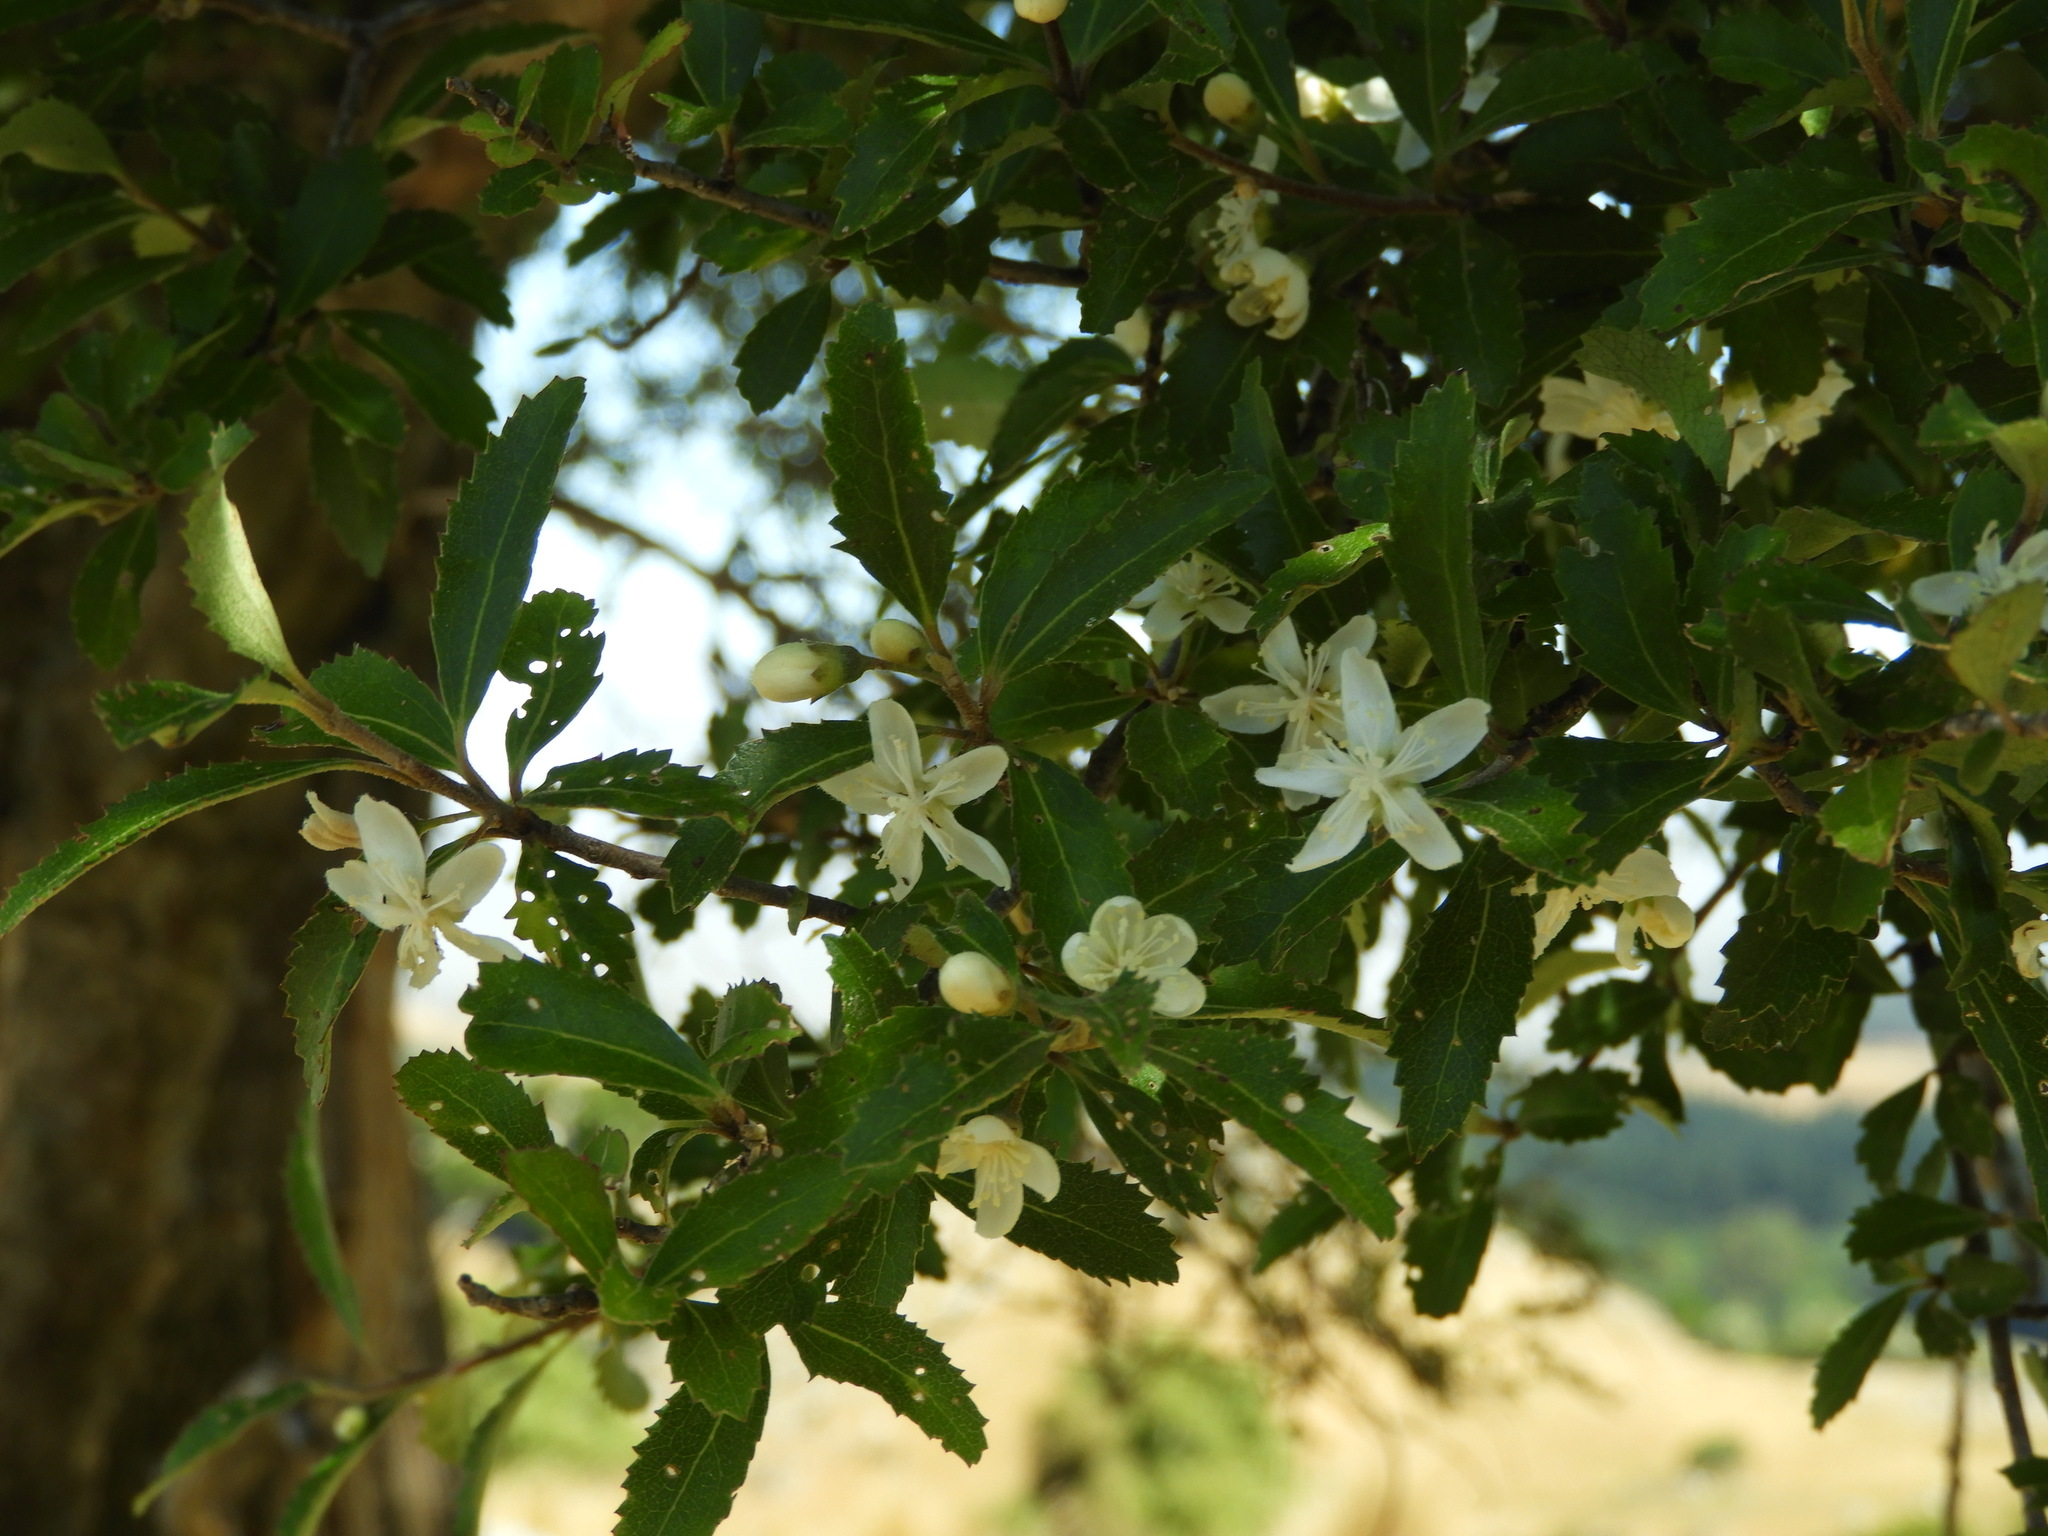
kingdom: Plantae
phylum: Tracheophyta
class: Magnoliopsida
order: Malvales
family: Malvaceae
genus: Hoheria
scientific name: Hoheria angustifolia
